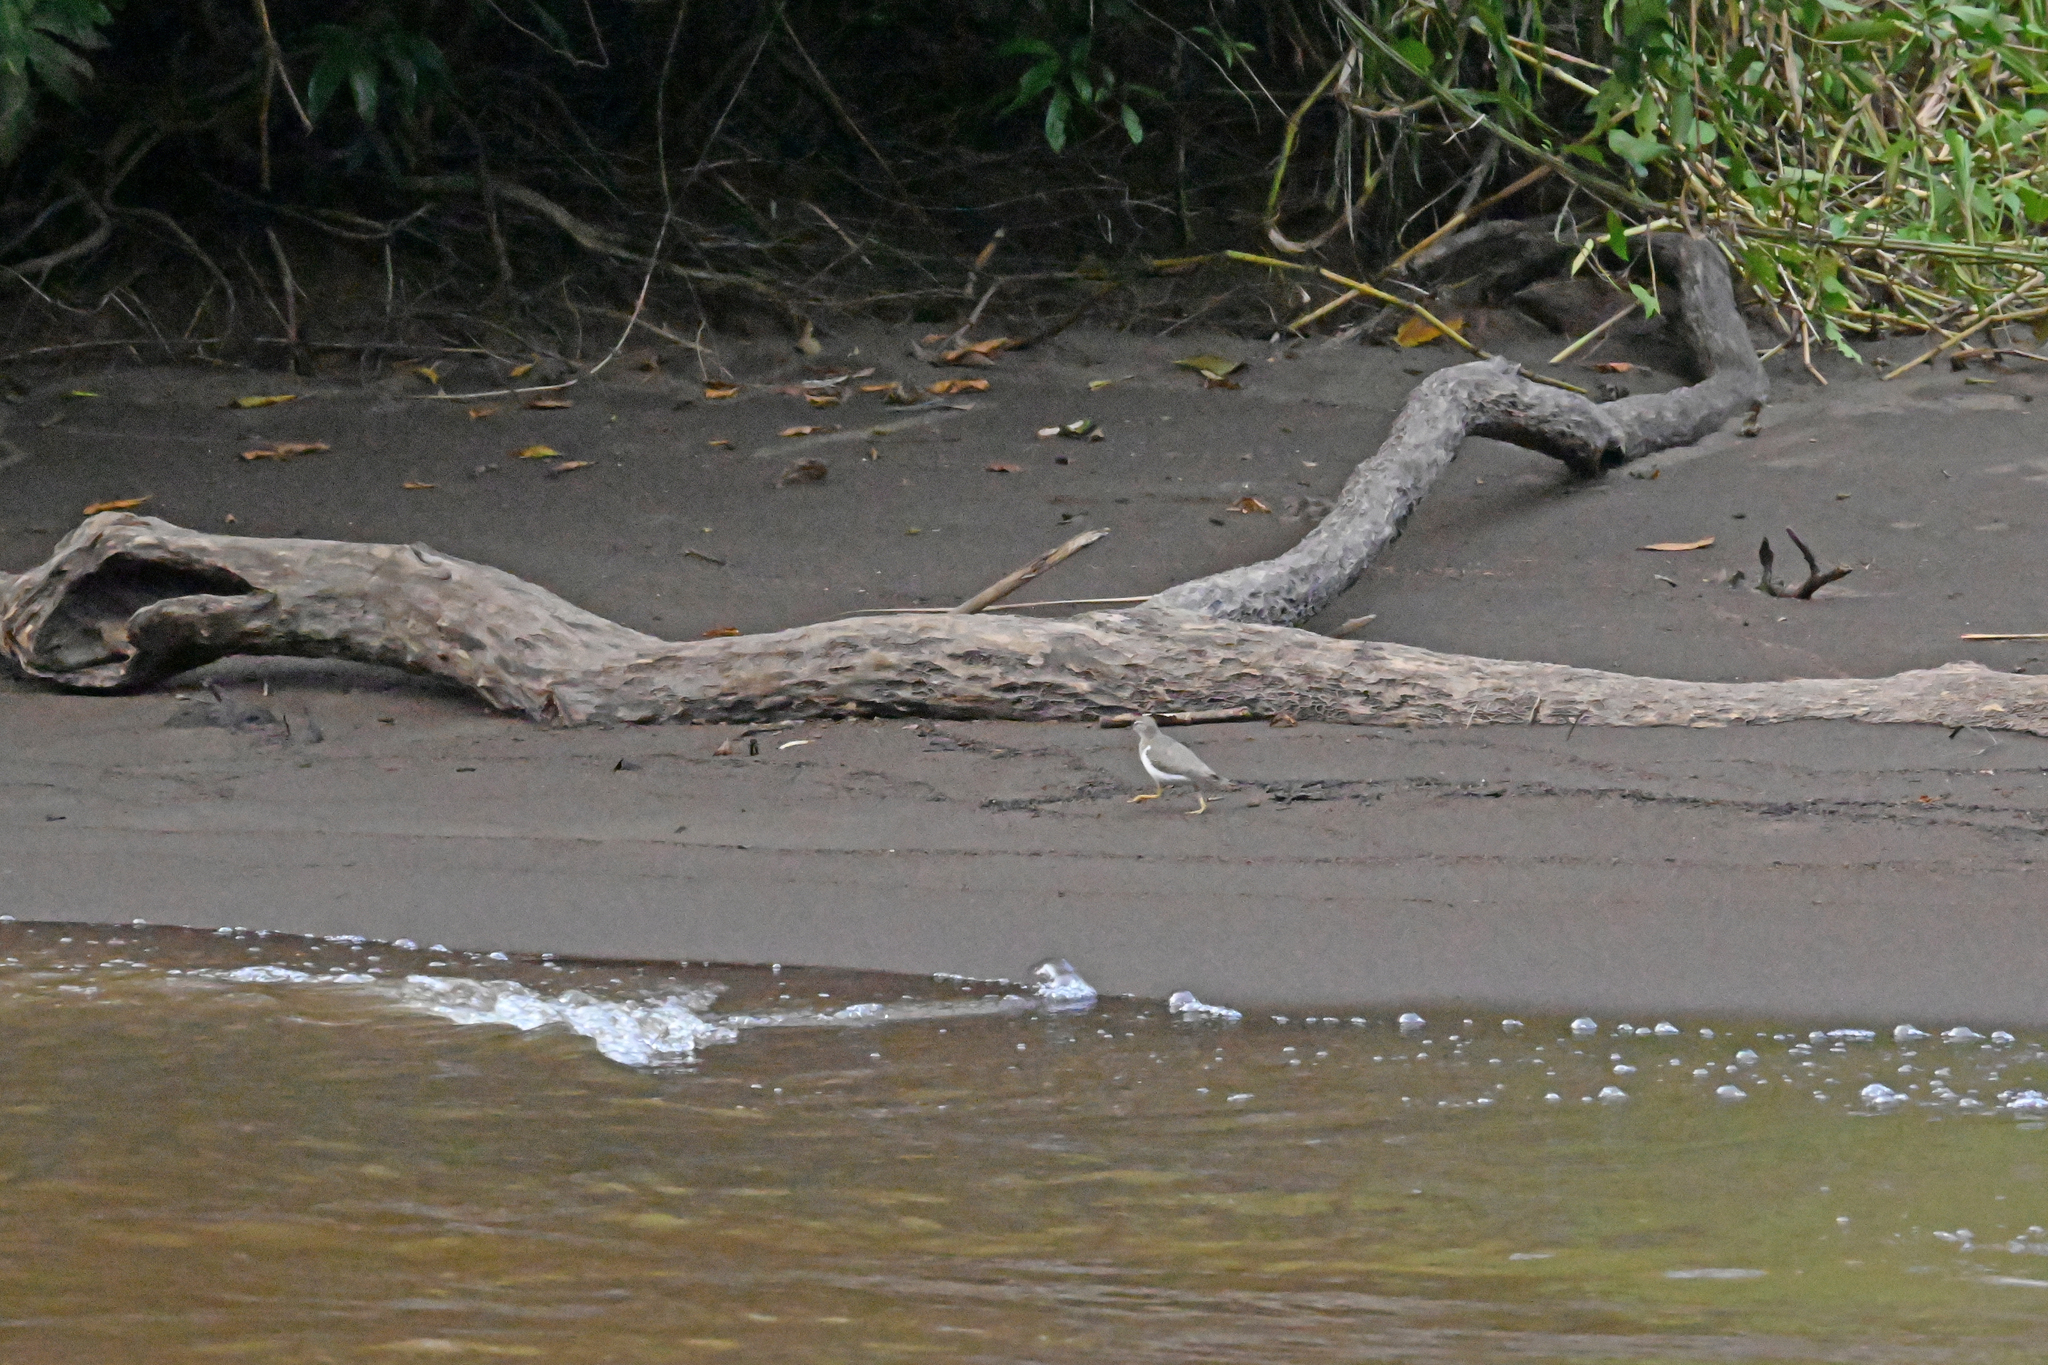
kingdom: Animalia
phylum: Chordata
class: Aves
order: Charadriiformes
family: Scolopacidae
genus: Actitis
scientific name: Actitis macularius
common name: Spotted sandpiper
